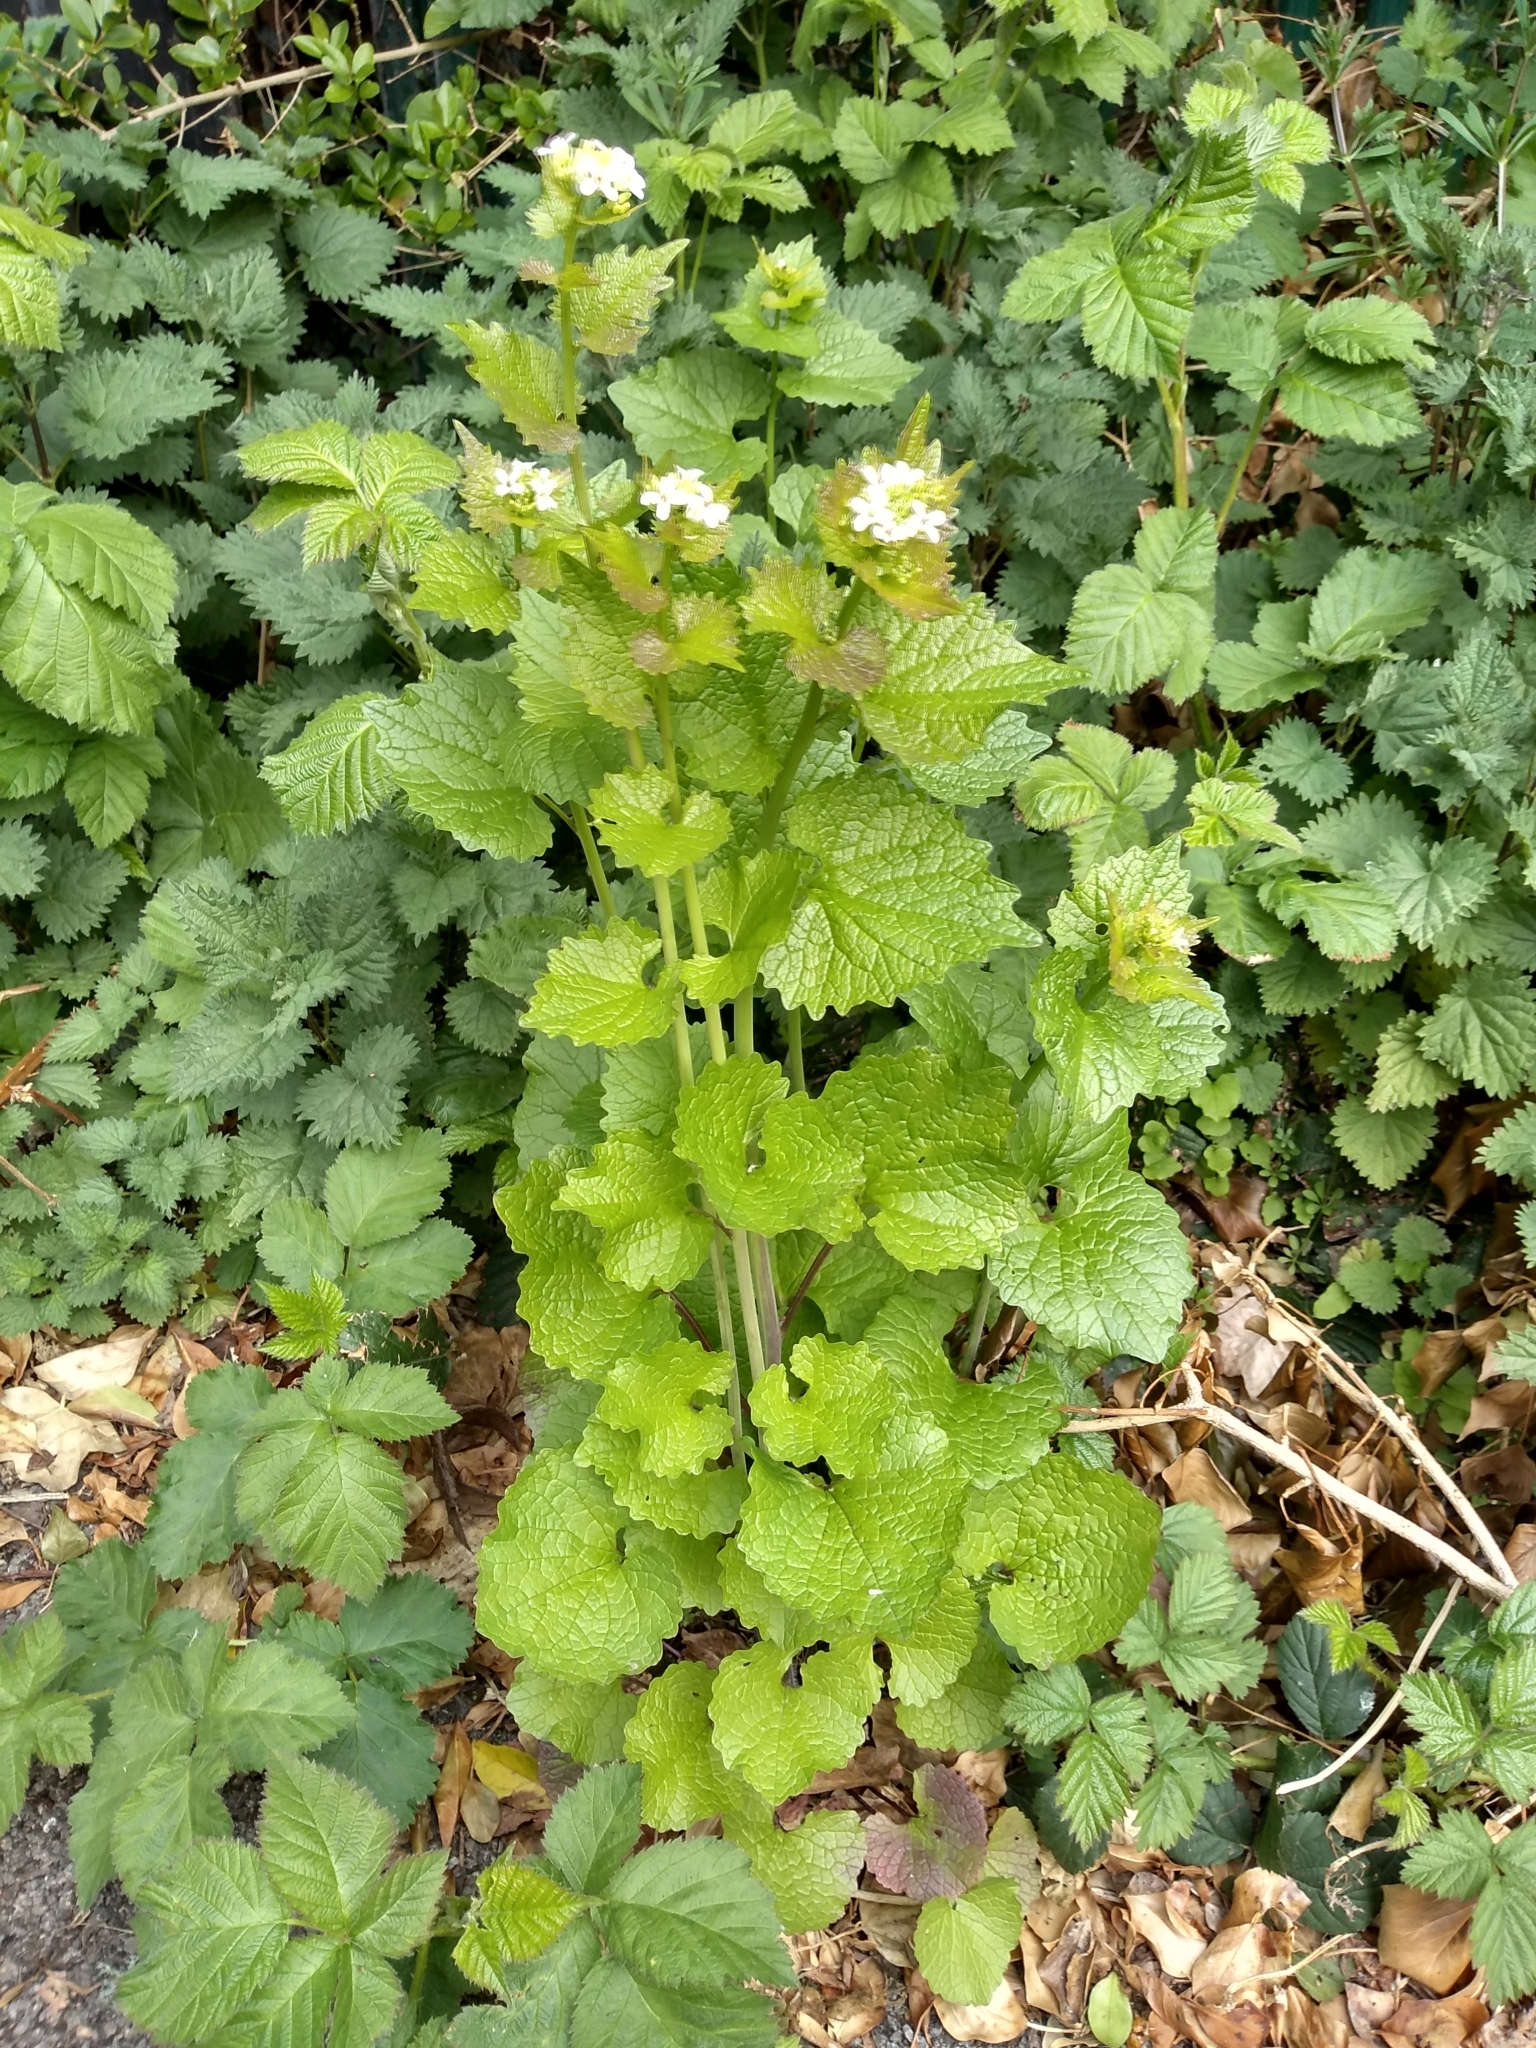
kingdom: Plantae
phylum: Tracheophyta
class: Magnoliopsida
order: Brassicales
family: Brassicaceae
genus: Alliaria
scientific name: Alliaria petiolata
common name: Garlic mustard
